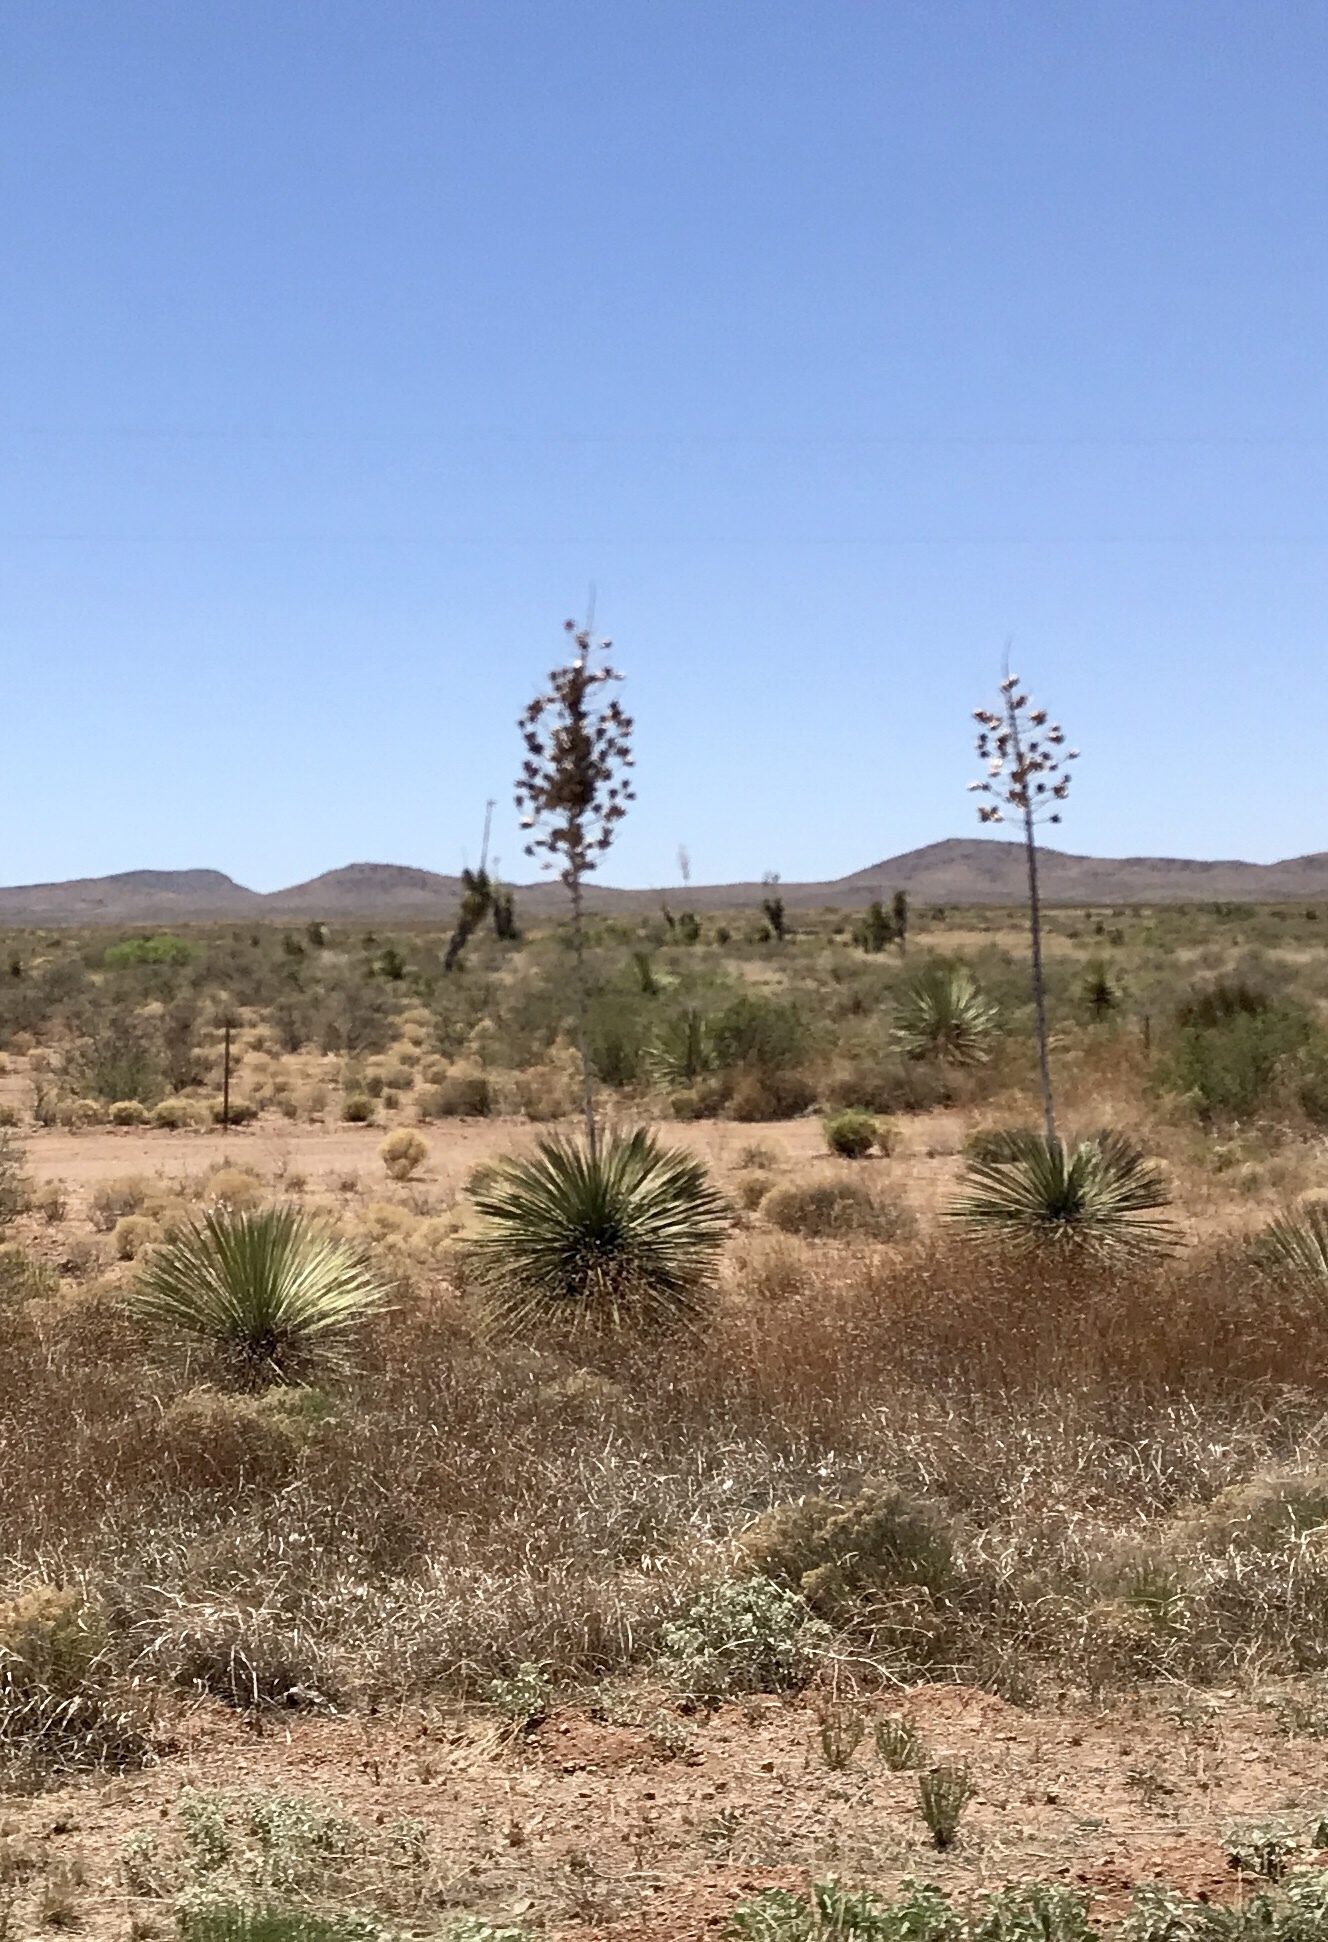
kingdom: Plantae
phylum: Tracheophyta
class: Liliopsida
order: Asparagales
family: Asparagaceae
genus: Yucca
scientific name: Yucca elata
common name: Palmella
